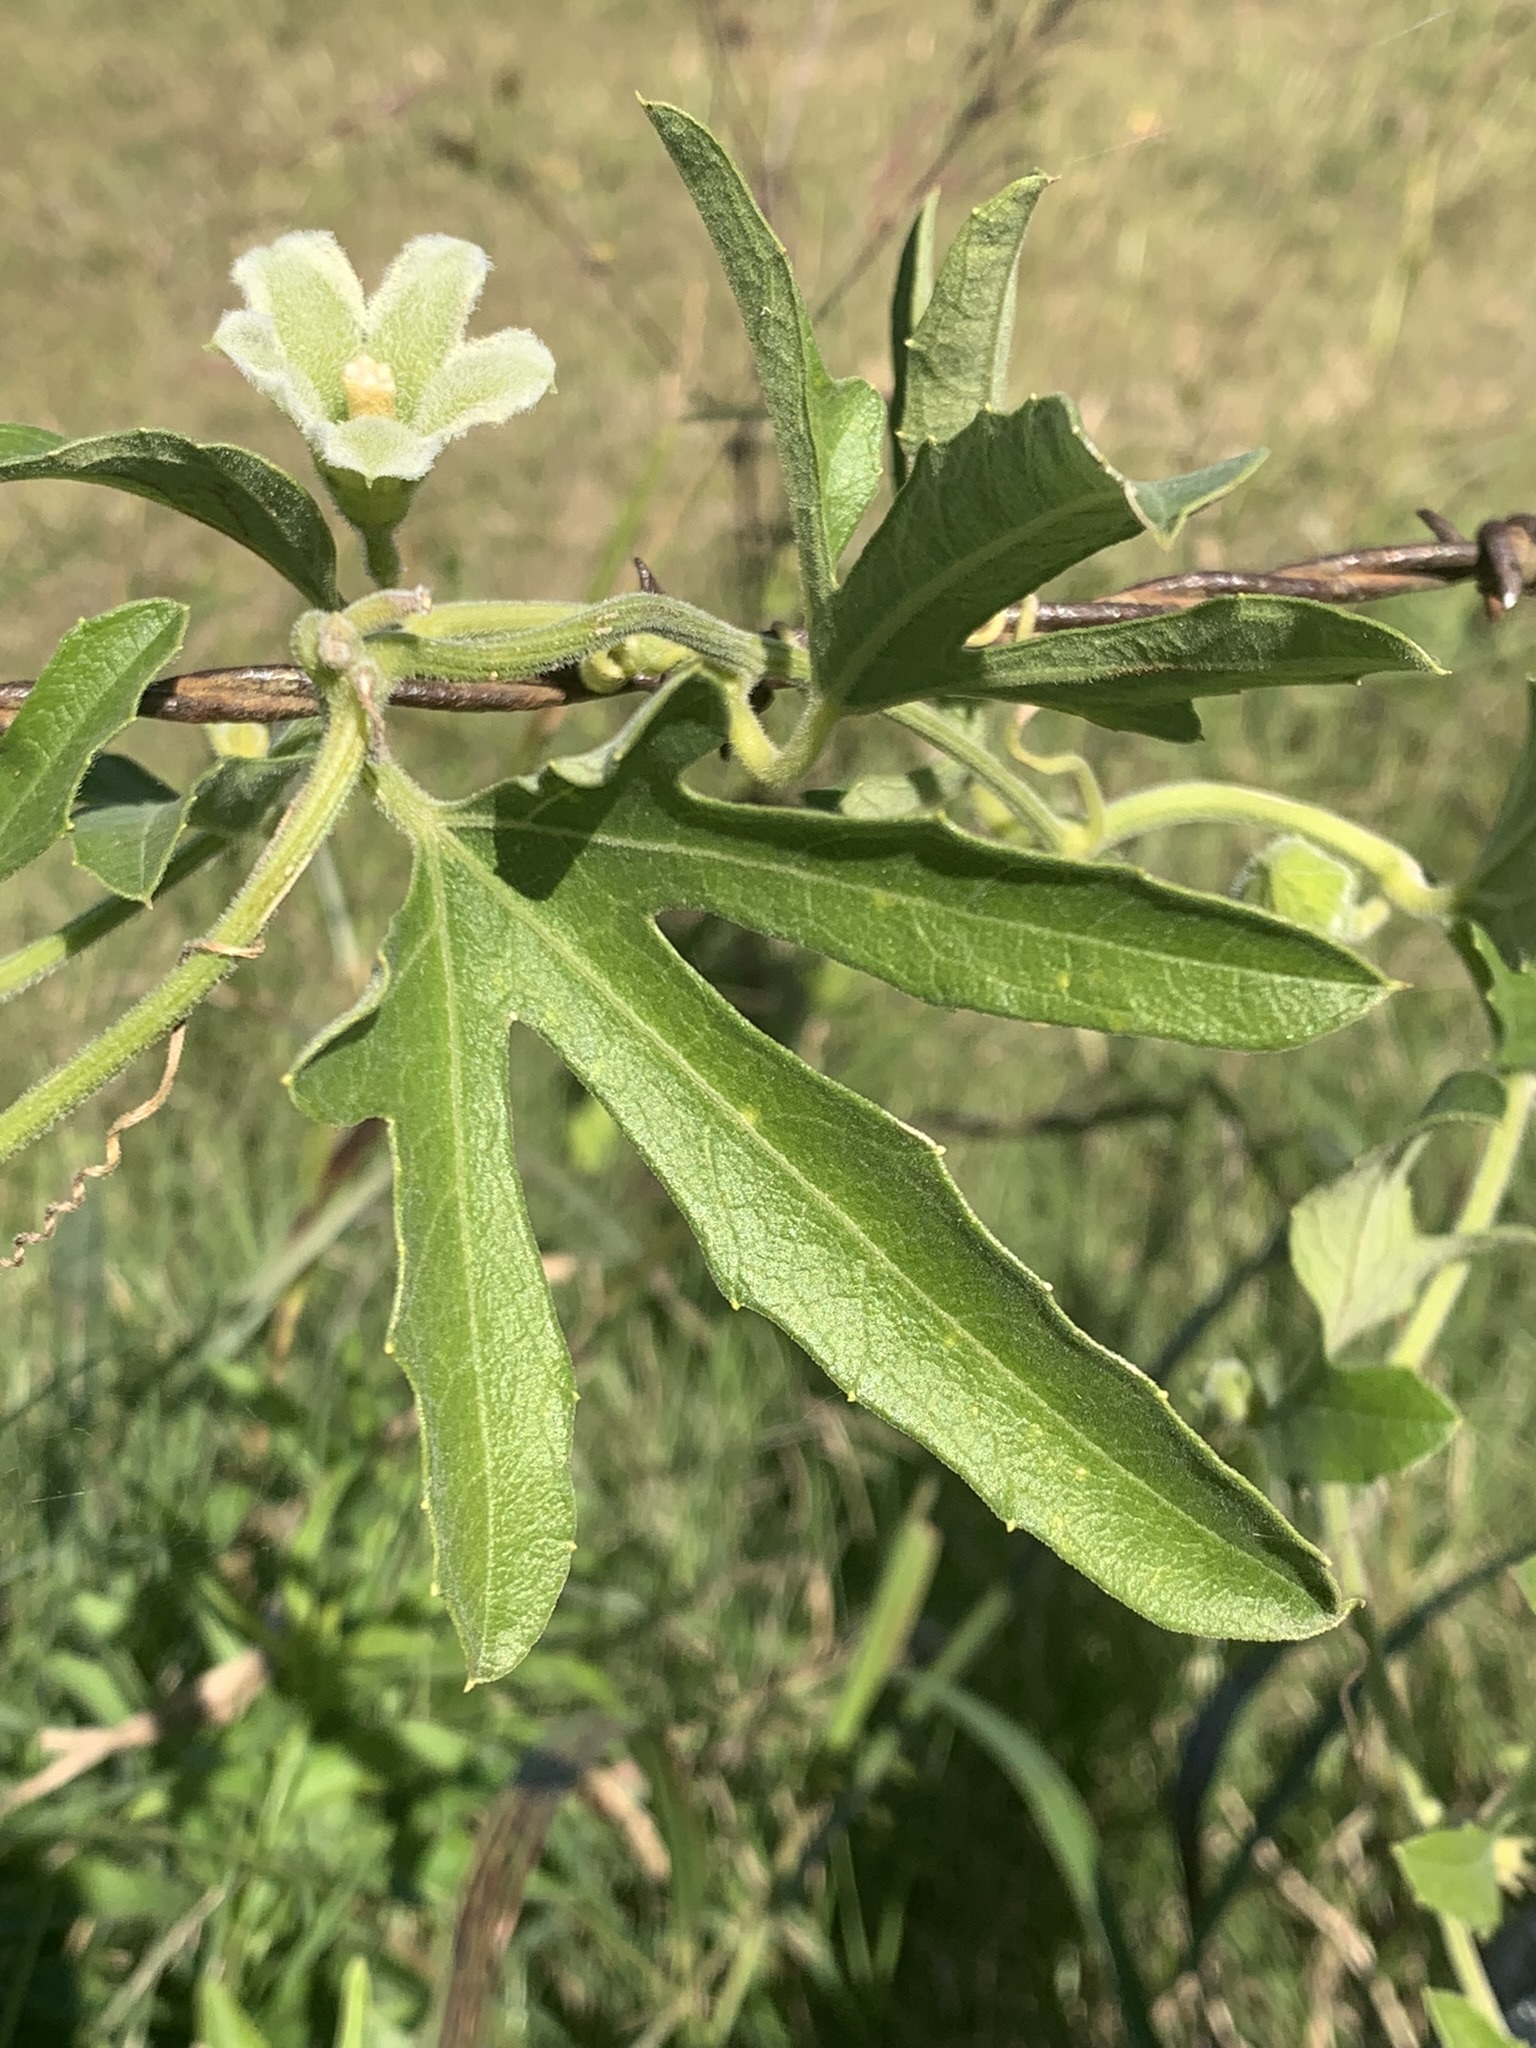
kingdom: Plantae
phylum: Tracheophyta
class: Magnoliopsida
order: Cucurbitales
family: Cucurbitaceae
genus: Cayaponia
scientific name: Cayaponia podantha
